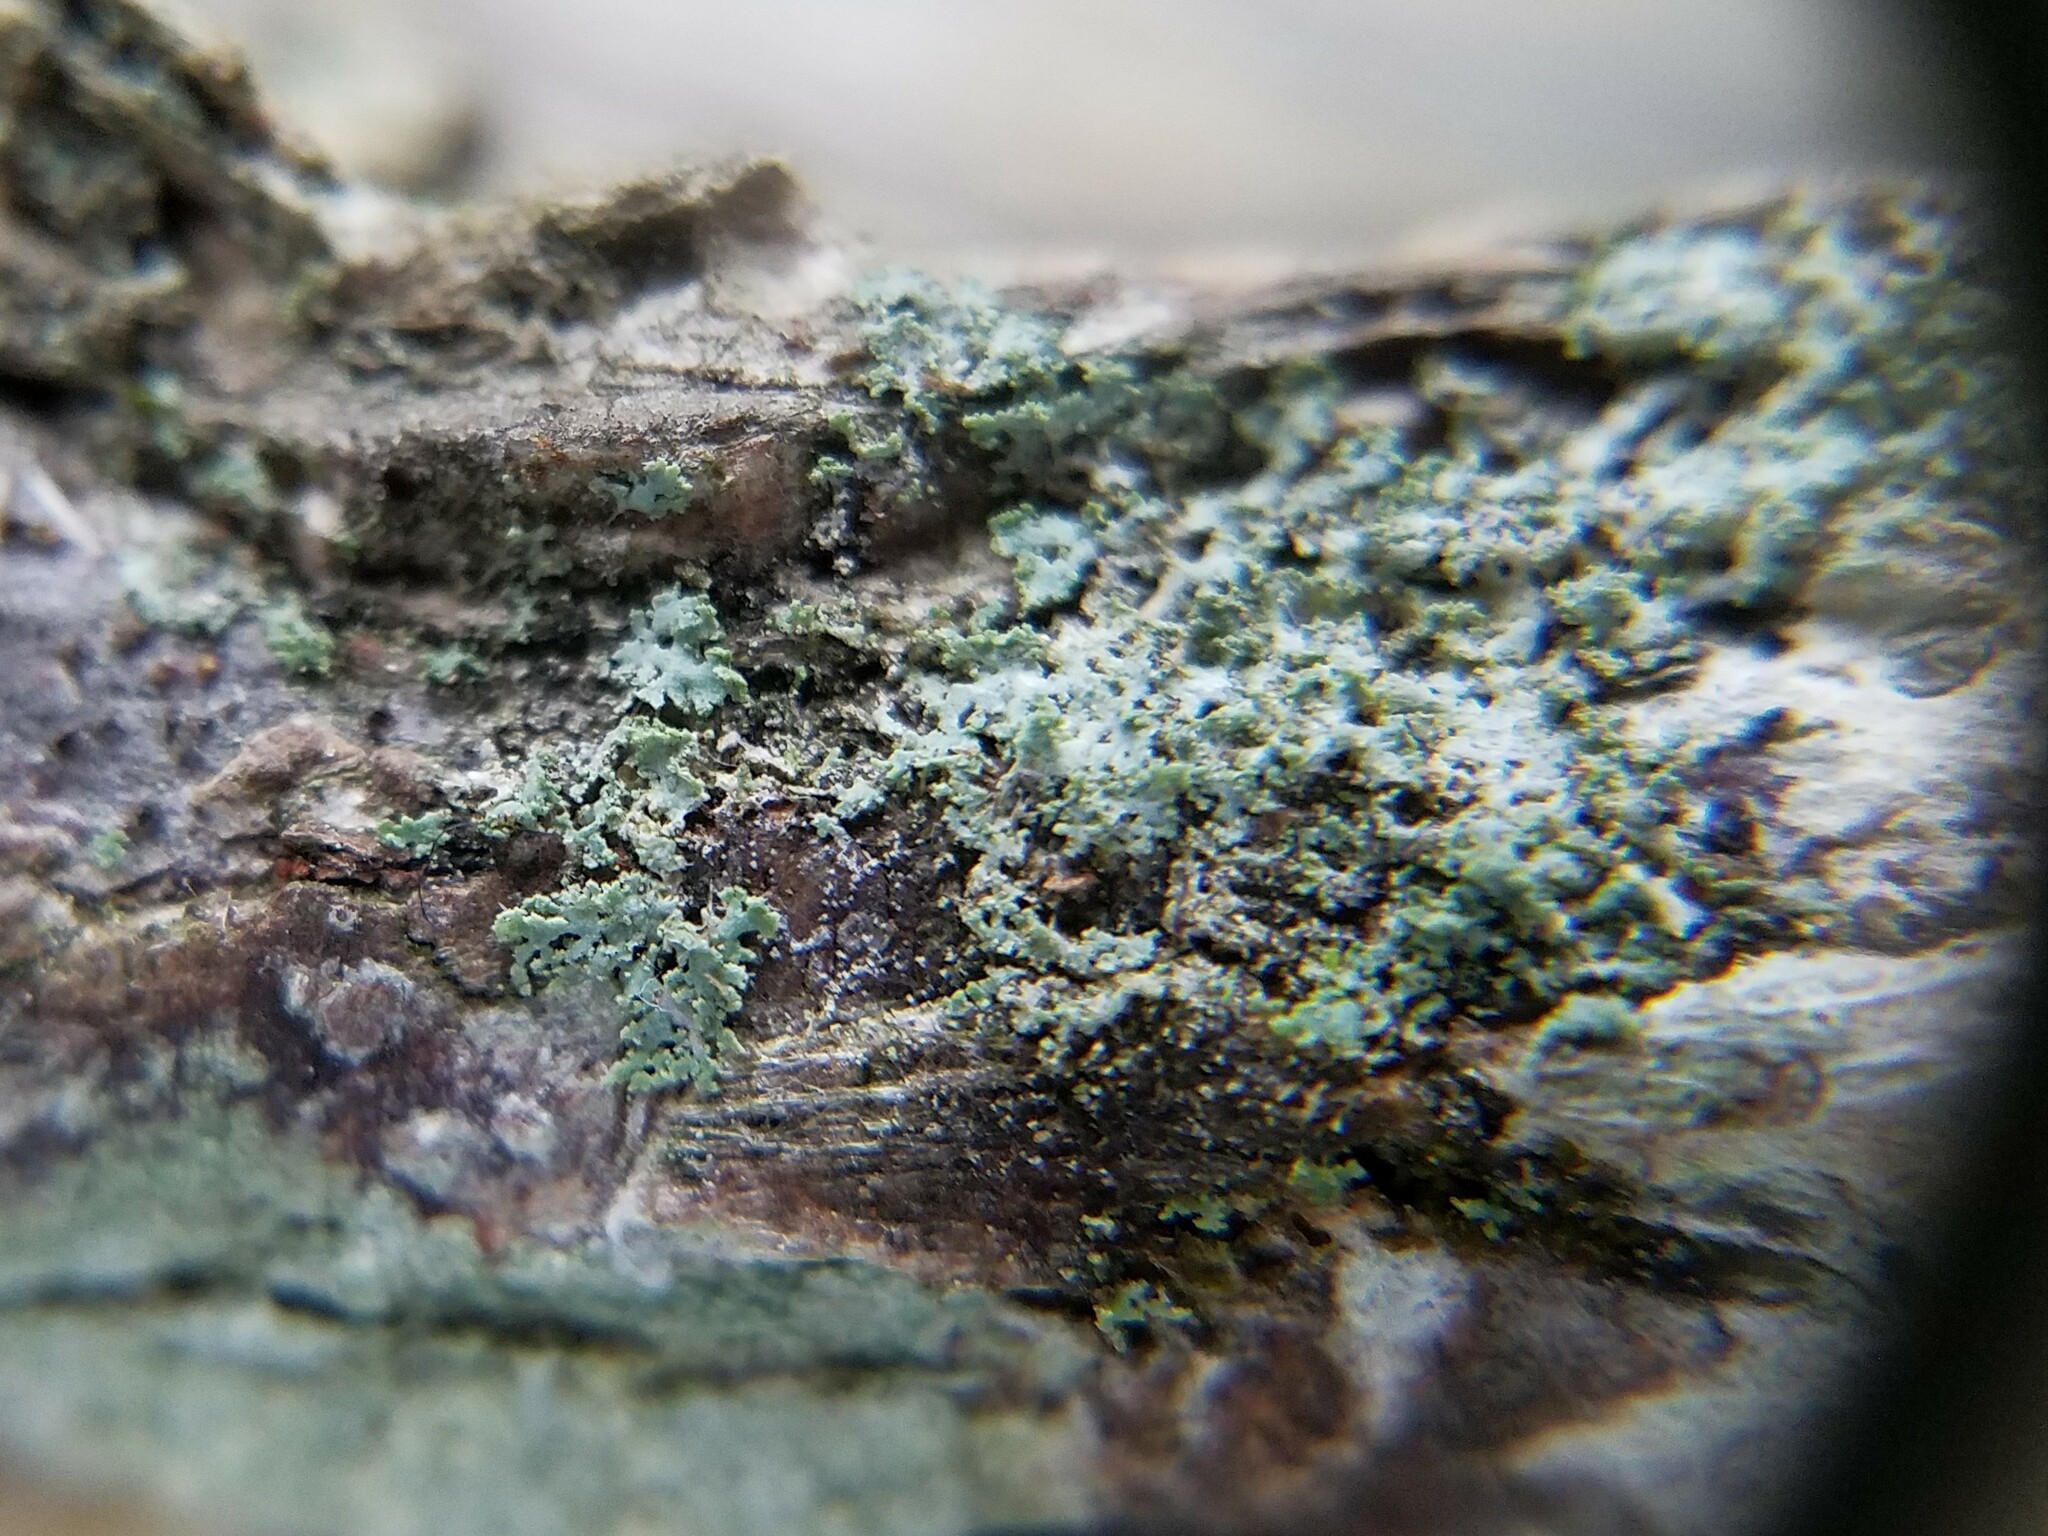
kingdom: Fungi
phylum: Ascomycota
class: Lecanoromycetes
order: Caliciales
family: Physciaceae
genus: Physcia
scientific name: Physcia millegrana
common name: Rosette lichen
